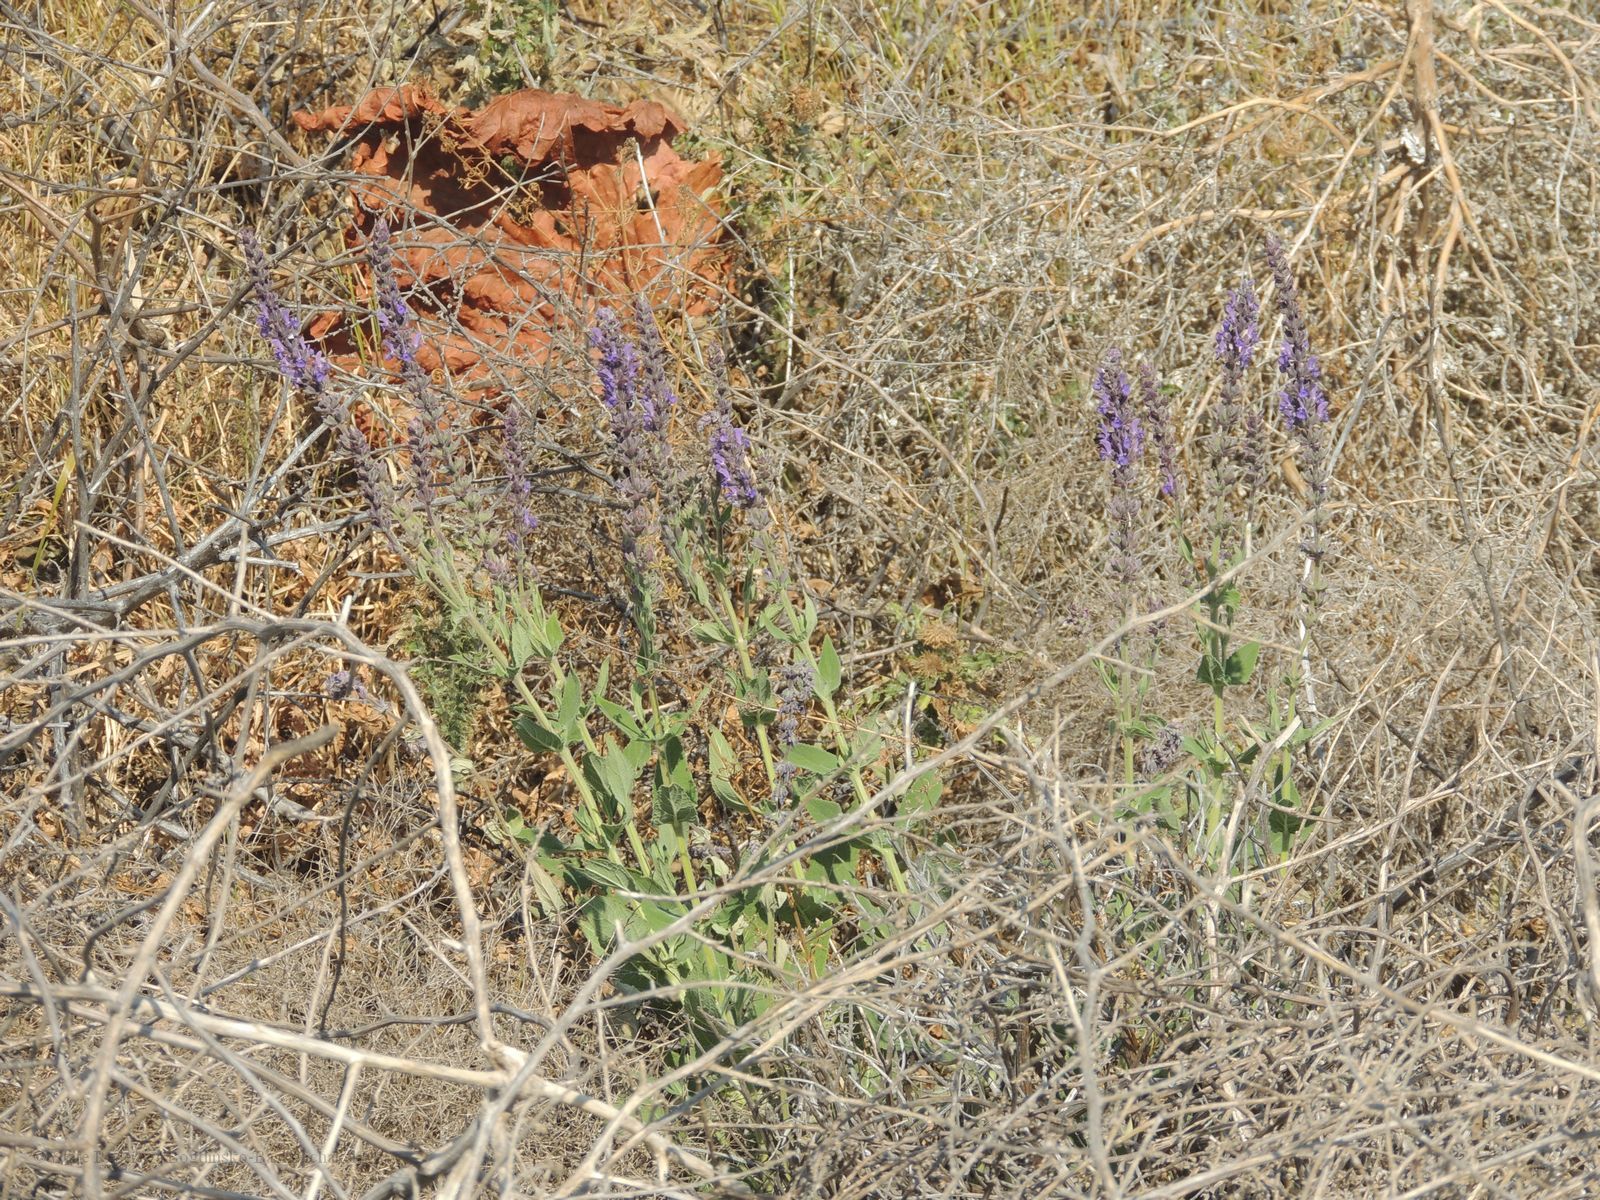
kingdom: Plantae
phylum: Tracheophyta
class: Magnoliopsida
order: Lamiales
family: Lamiaceae
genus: Salvia
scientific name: Salvia nemorosa
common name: Balkan clary
